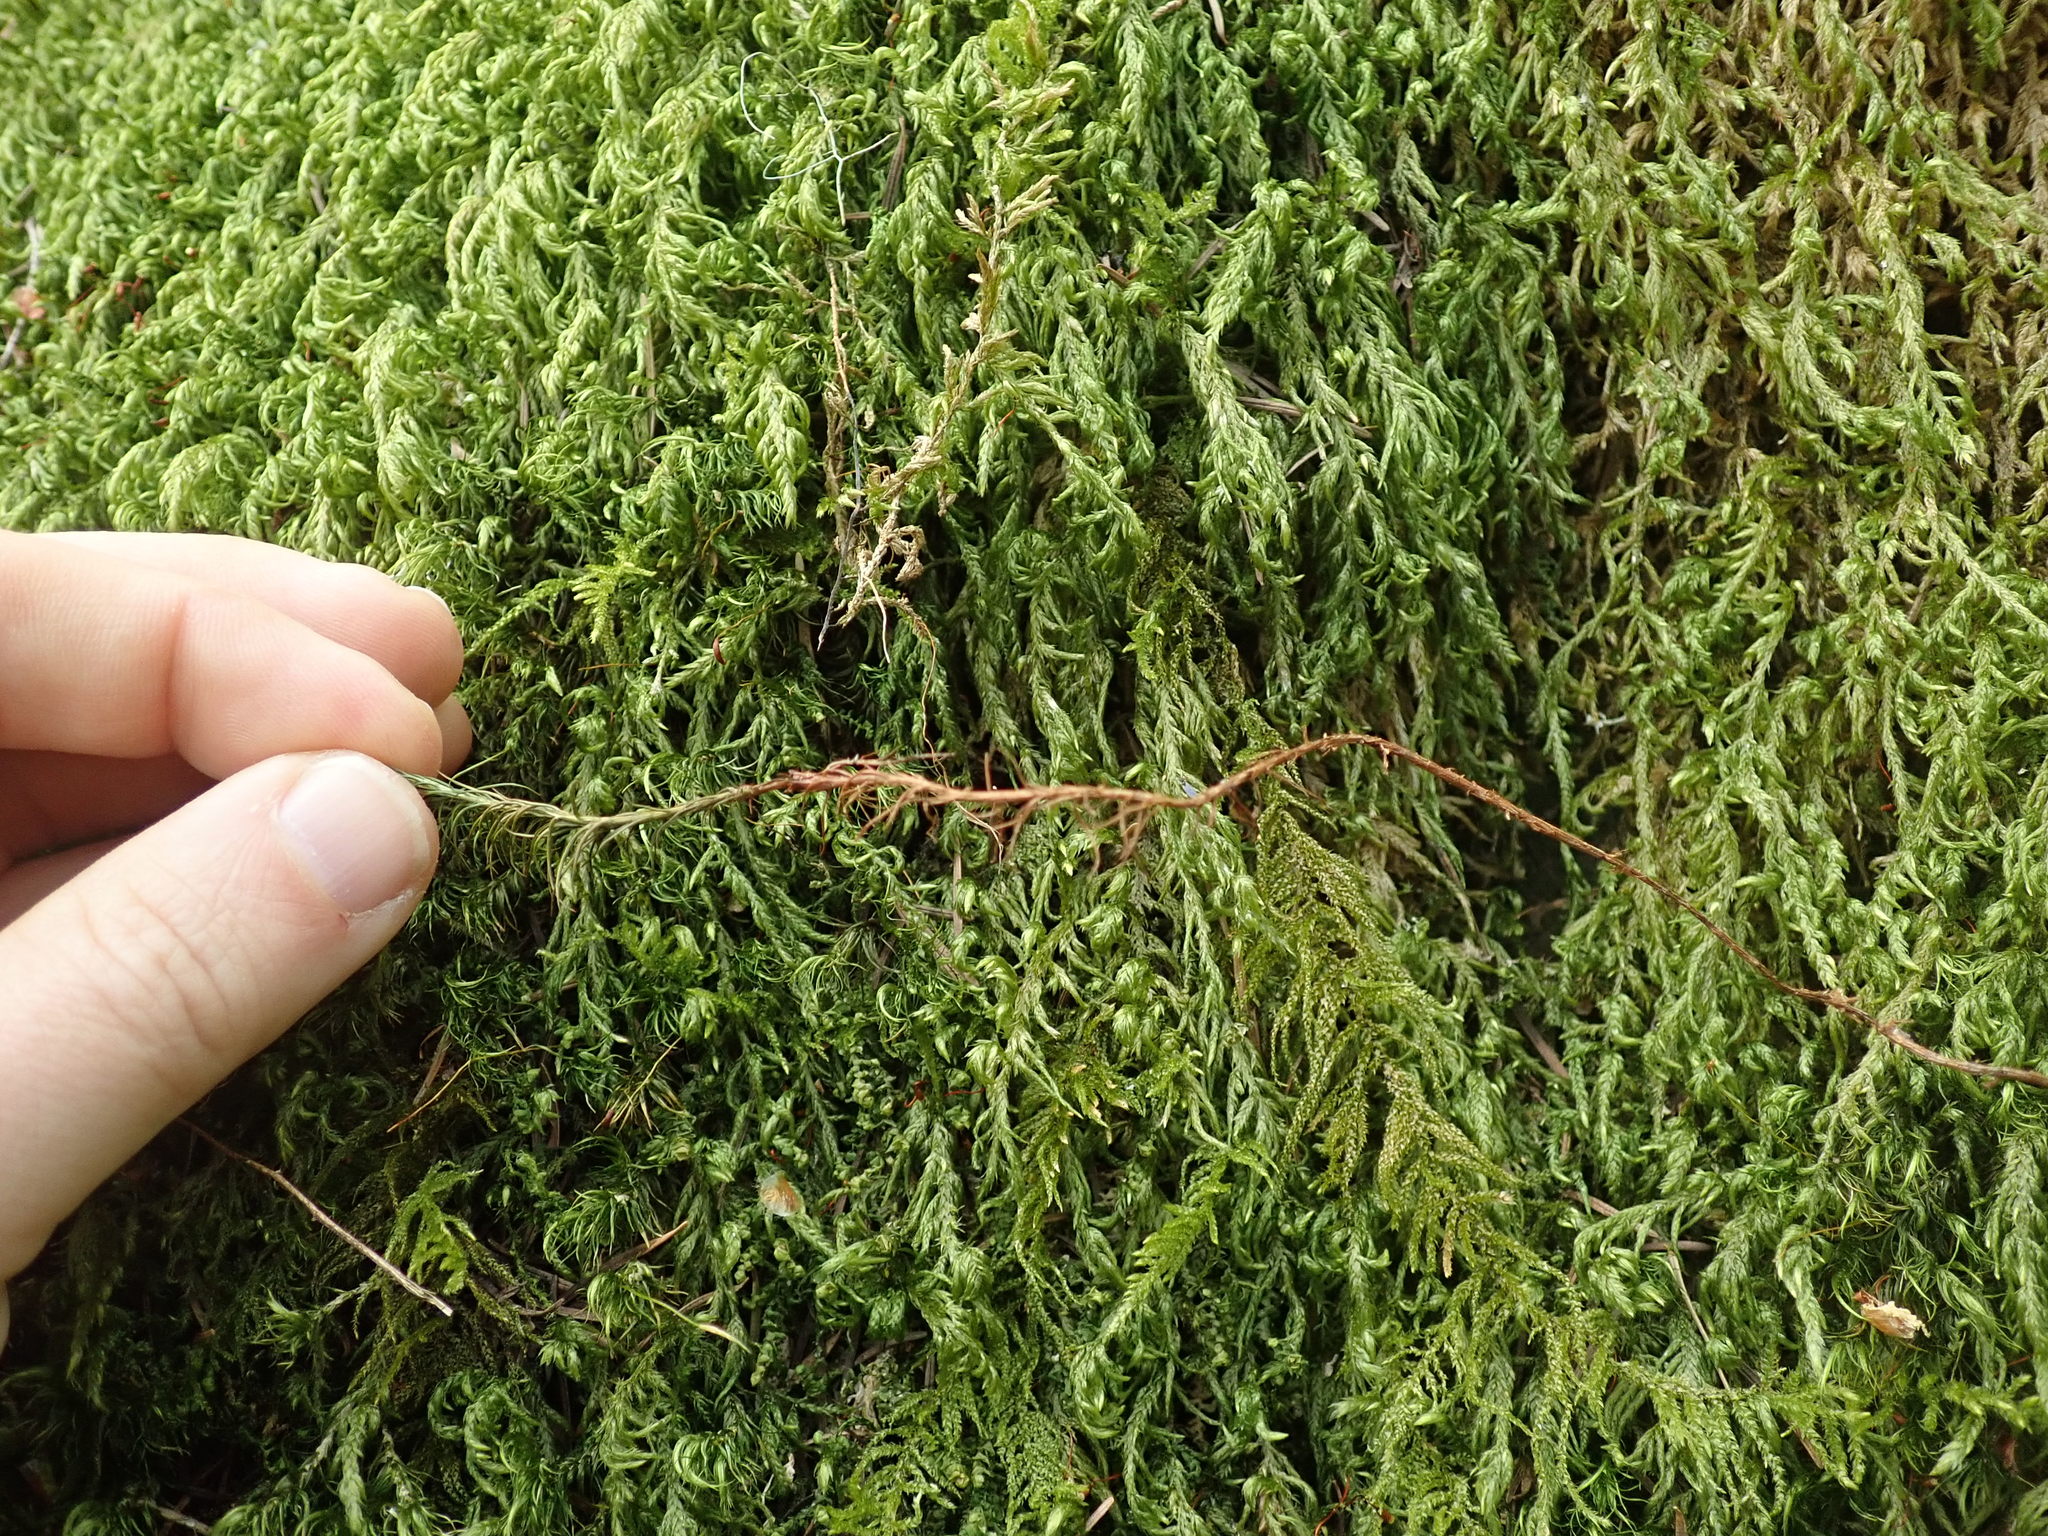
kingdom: Plantae
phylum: Bryophyta
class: Polytrichopsida
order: Polytrichales
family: Polytrichaceae
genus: Polytrichastrum
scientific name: Polytrichastrum alpinum
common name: Alpine haircap
